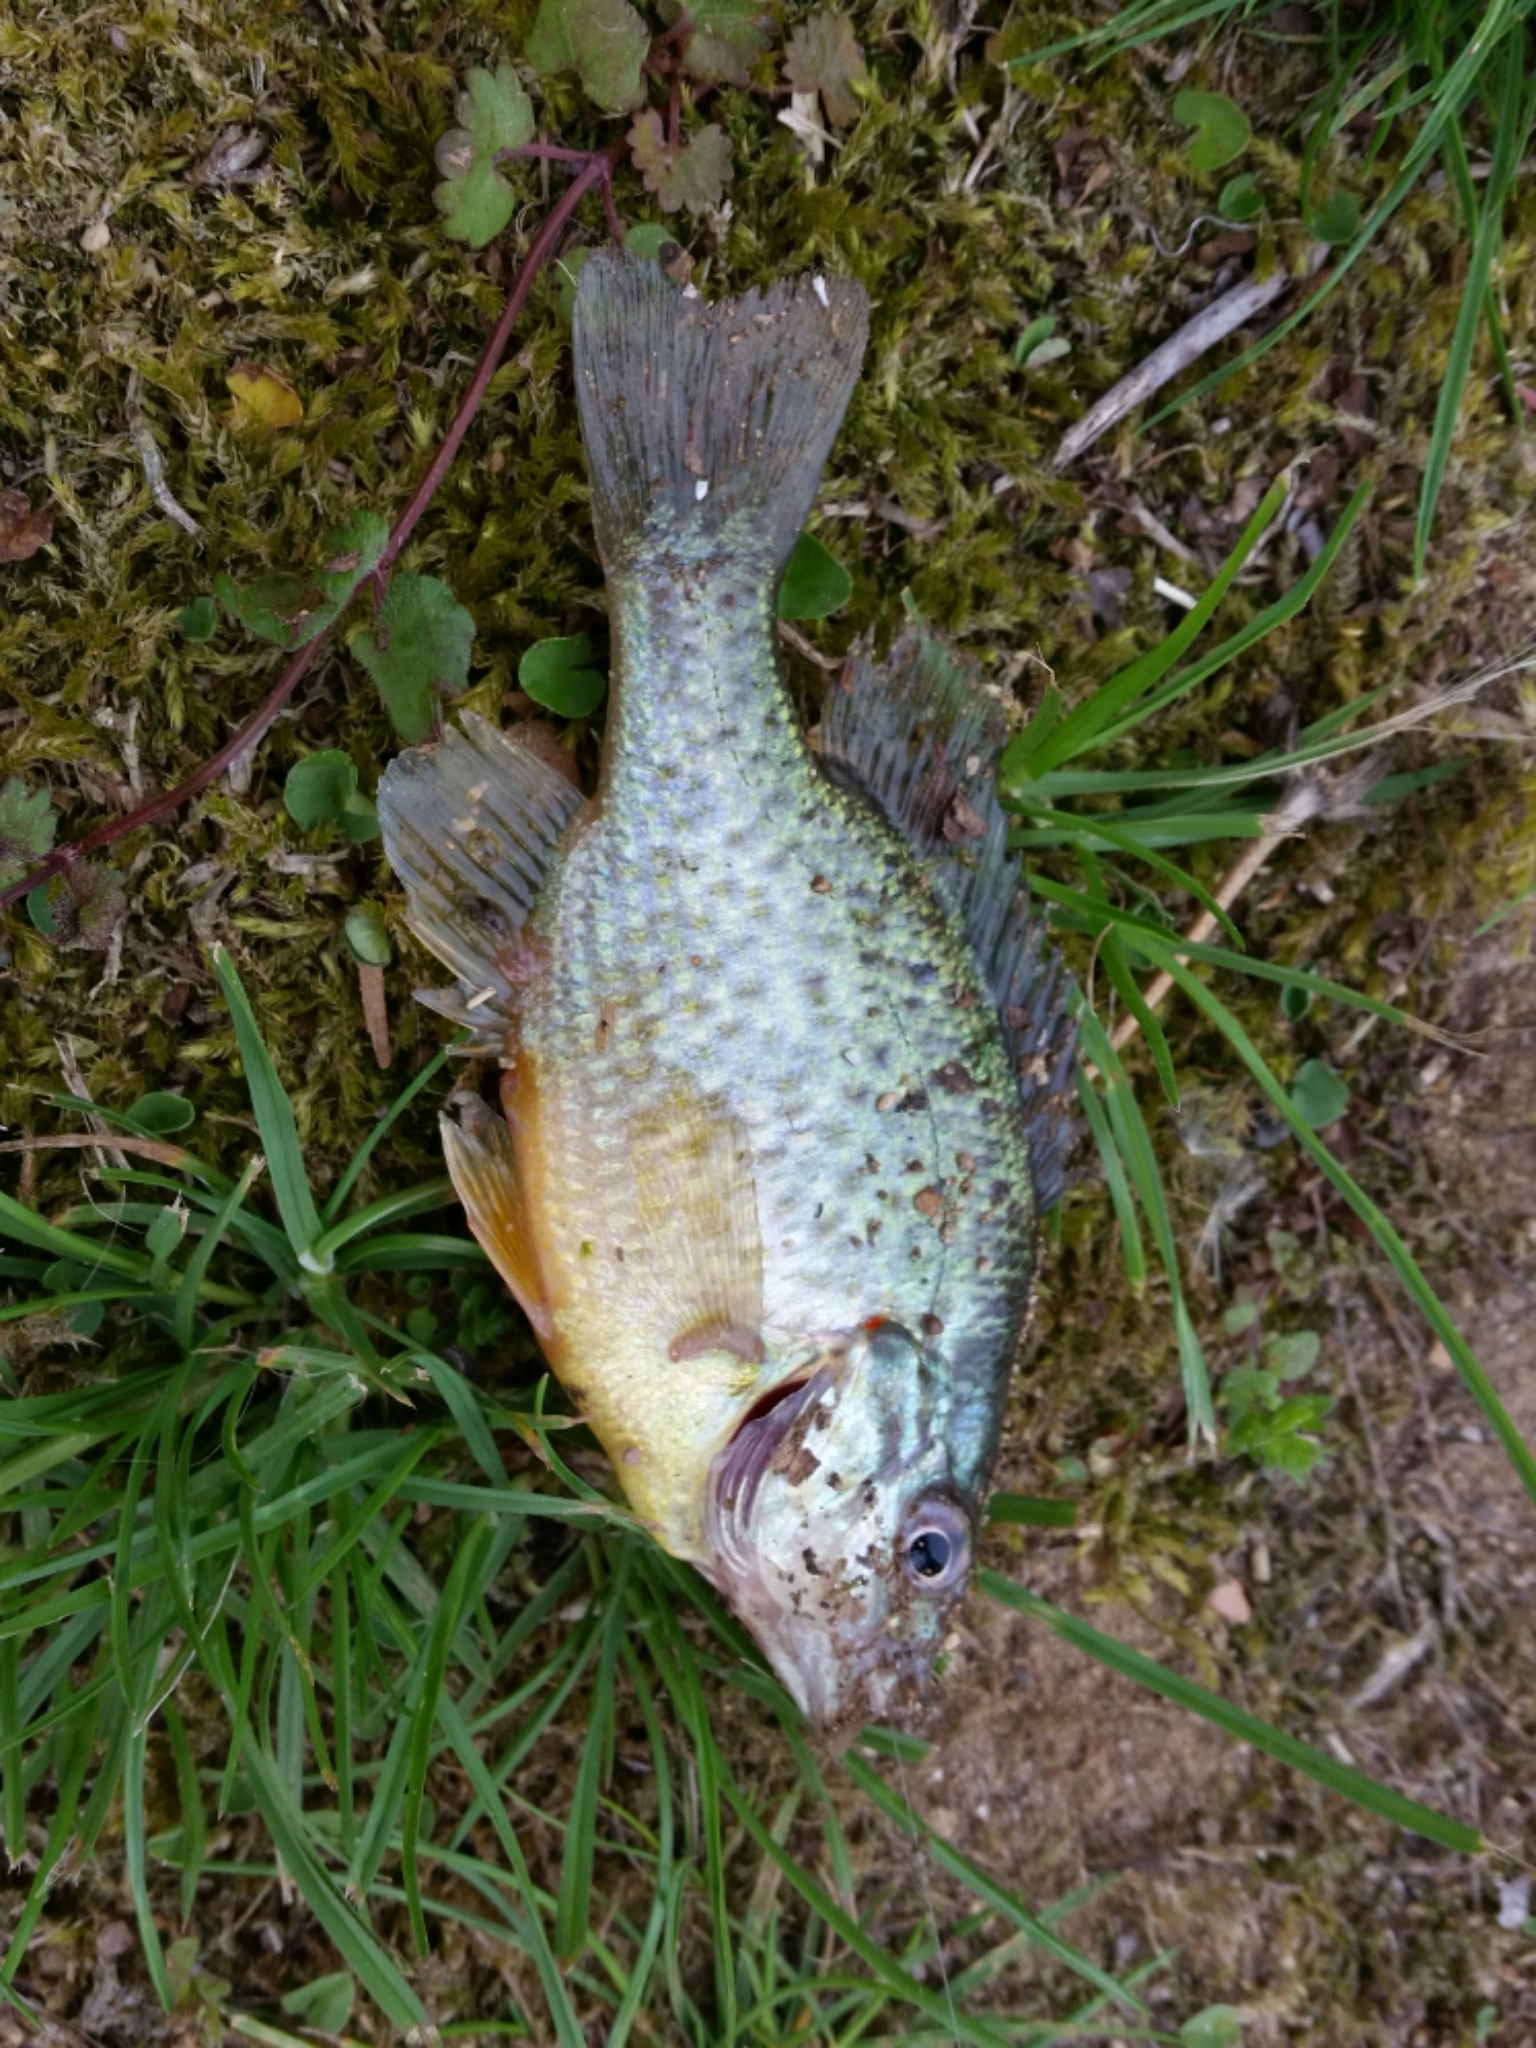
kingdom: Animalia
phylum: Chordata
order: Perciformes
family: Centrarchidae
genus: Lepomis
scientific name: Lepomis gibbosus
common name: Pumpkinseed
